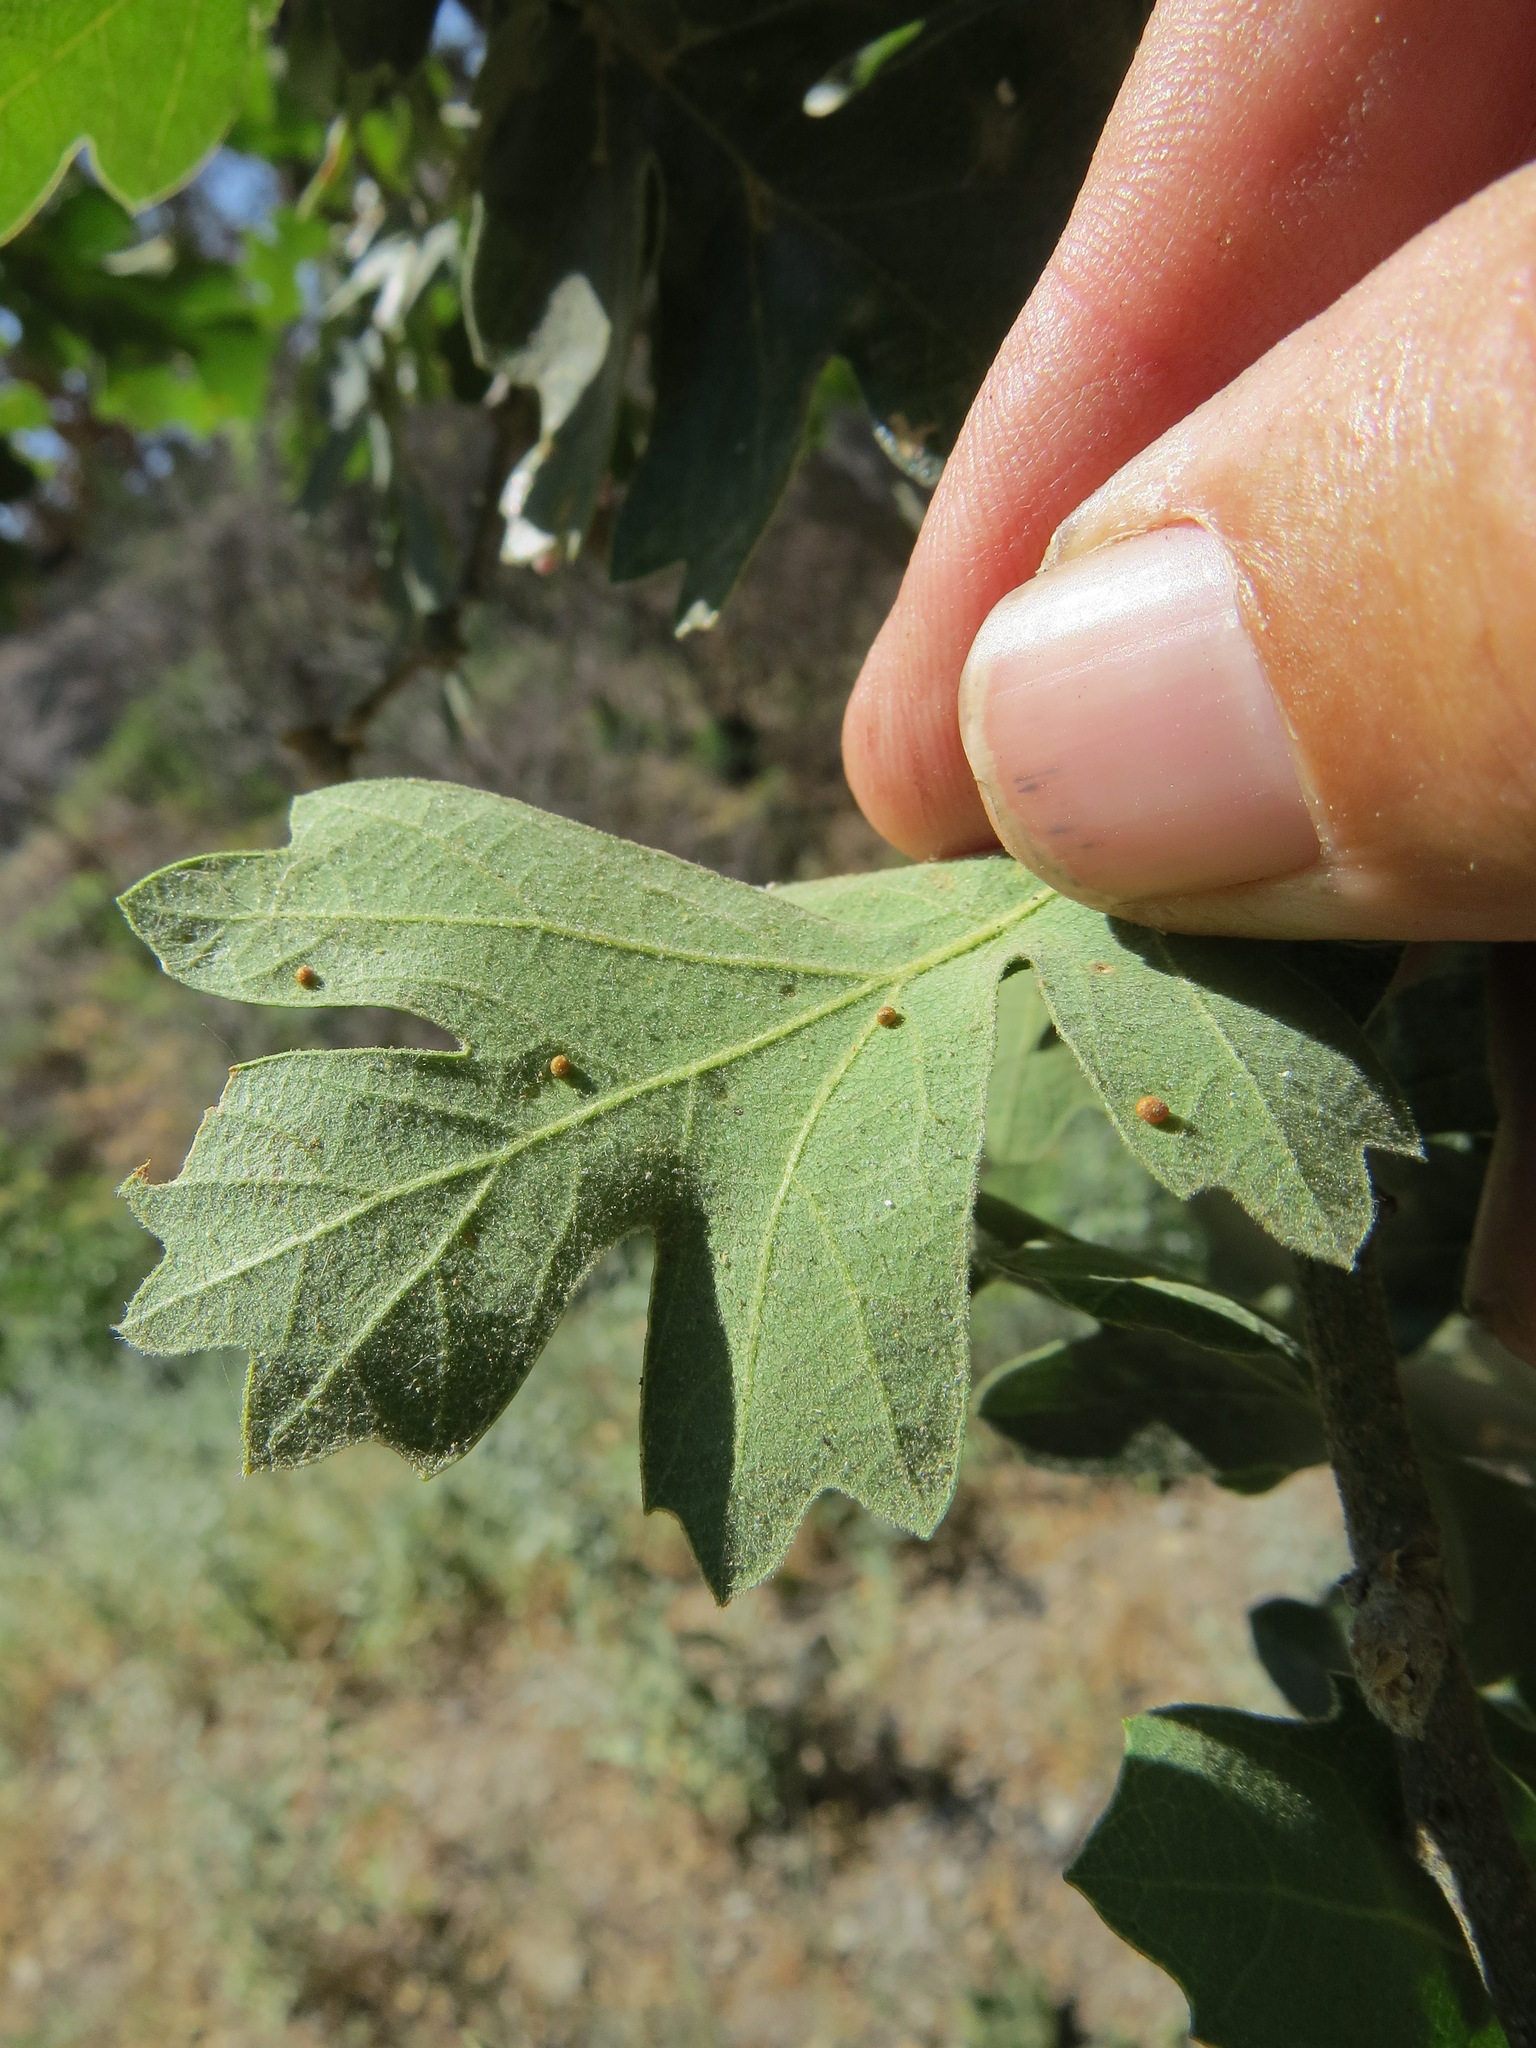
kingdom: Animalia
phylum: Arthropoda
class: Insecta
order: Hymenoptera
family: Cynipidae
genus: Neuroterus
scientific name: Neuroterus saltarius
